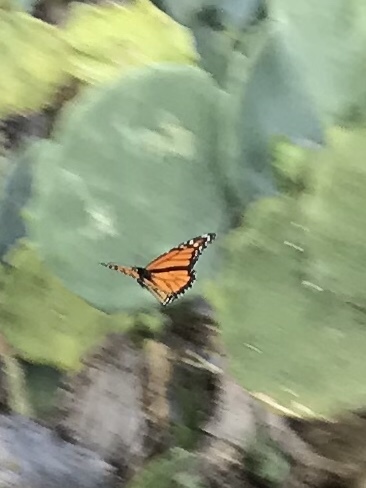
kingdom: Animalia
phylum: Arthropoda
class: Insecta
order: Lepidoptera
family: Nymphalidae
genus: Danaus
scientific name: Danaus plexippus
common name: Monarch
